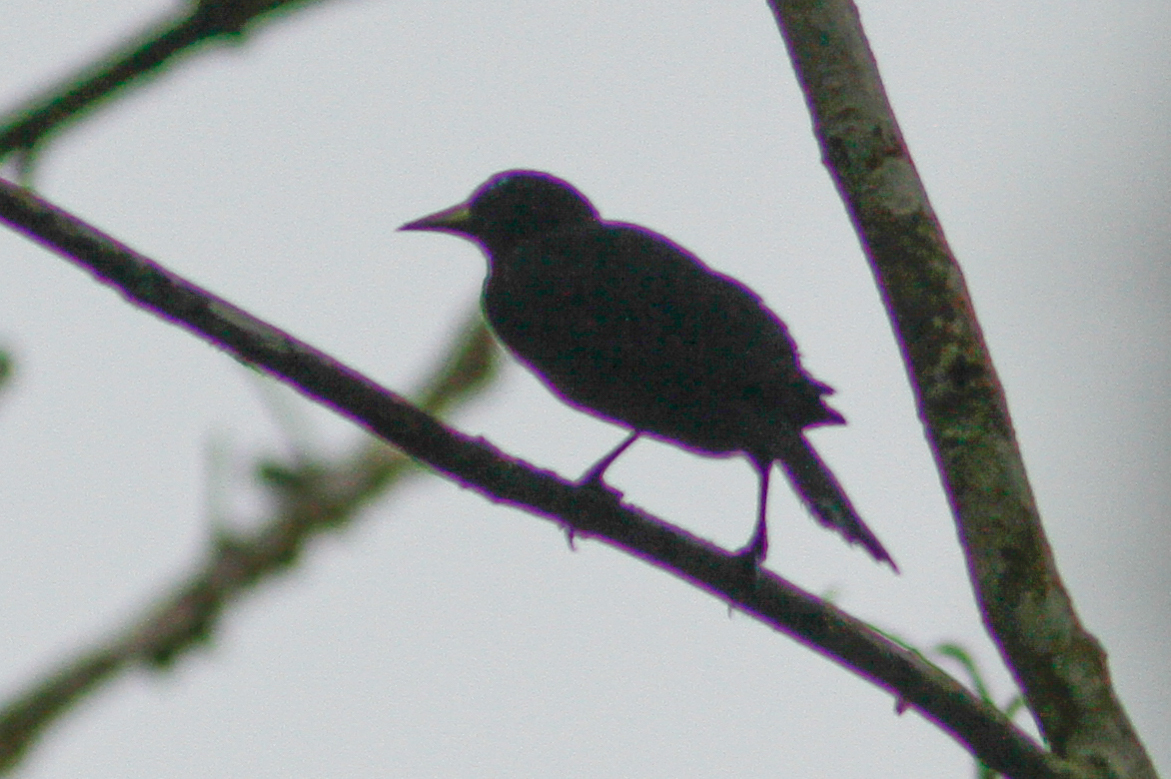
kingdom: Animalia
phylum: Chordata
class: Aves
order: Passeriformes
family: Icteridae
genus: Cacicus
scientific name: Cacicus uropygialis
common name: Scarlet-rumped cacique
